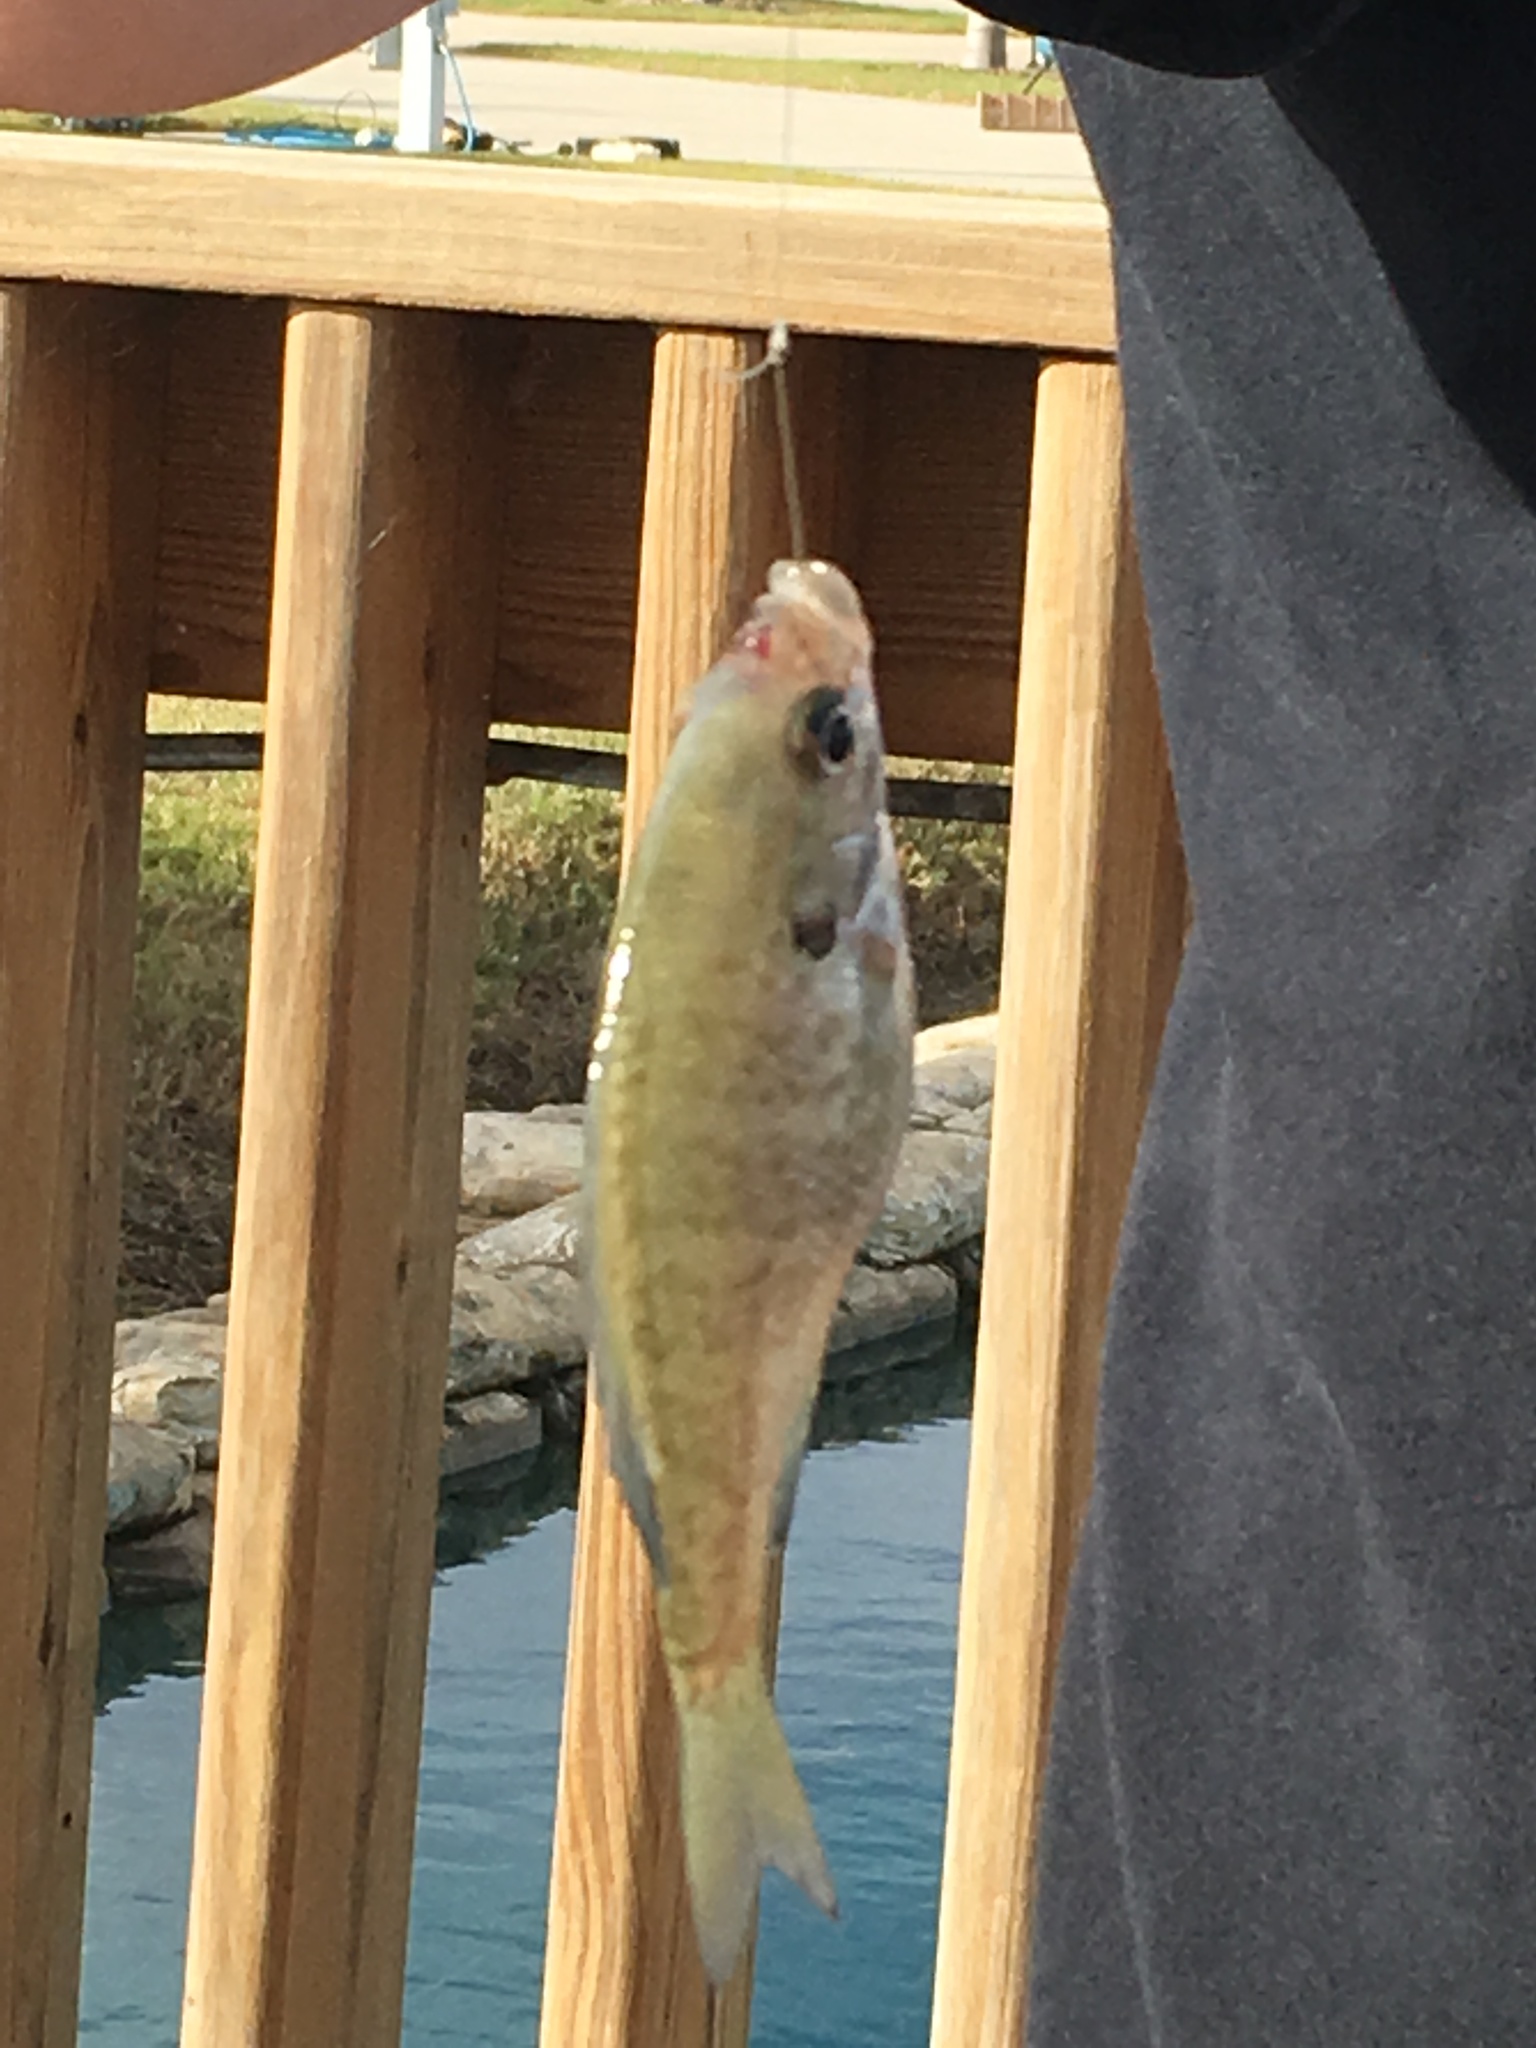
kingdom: Animalia
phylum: Chordata
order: Perciformes
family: Centrarchidae
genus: Lepomis
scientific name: Lepomis macrochirus
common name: Bluegill
